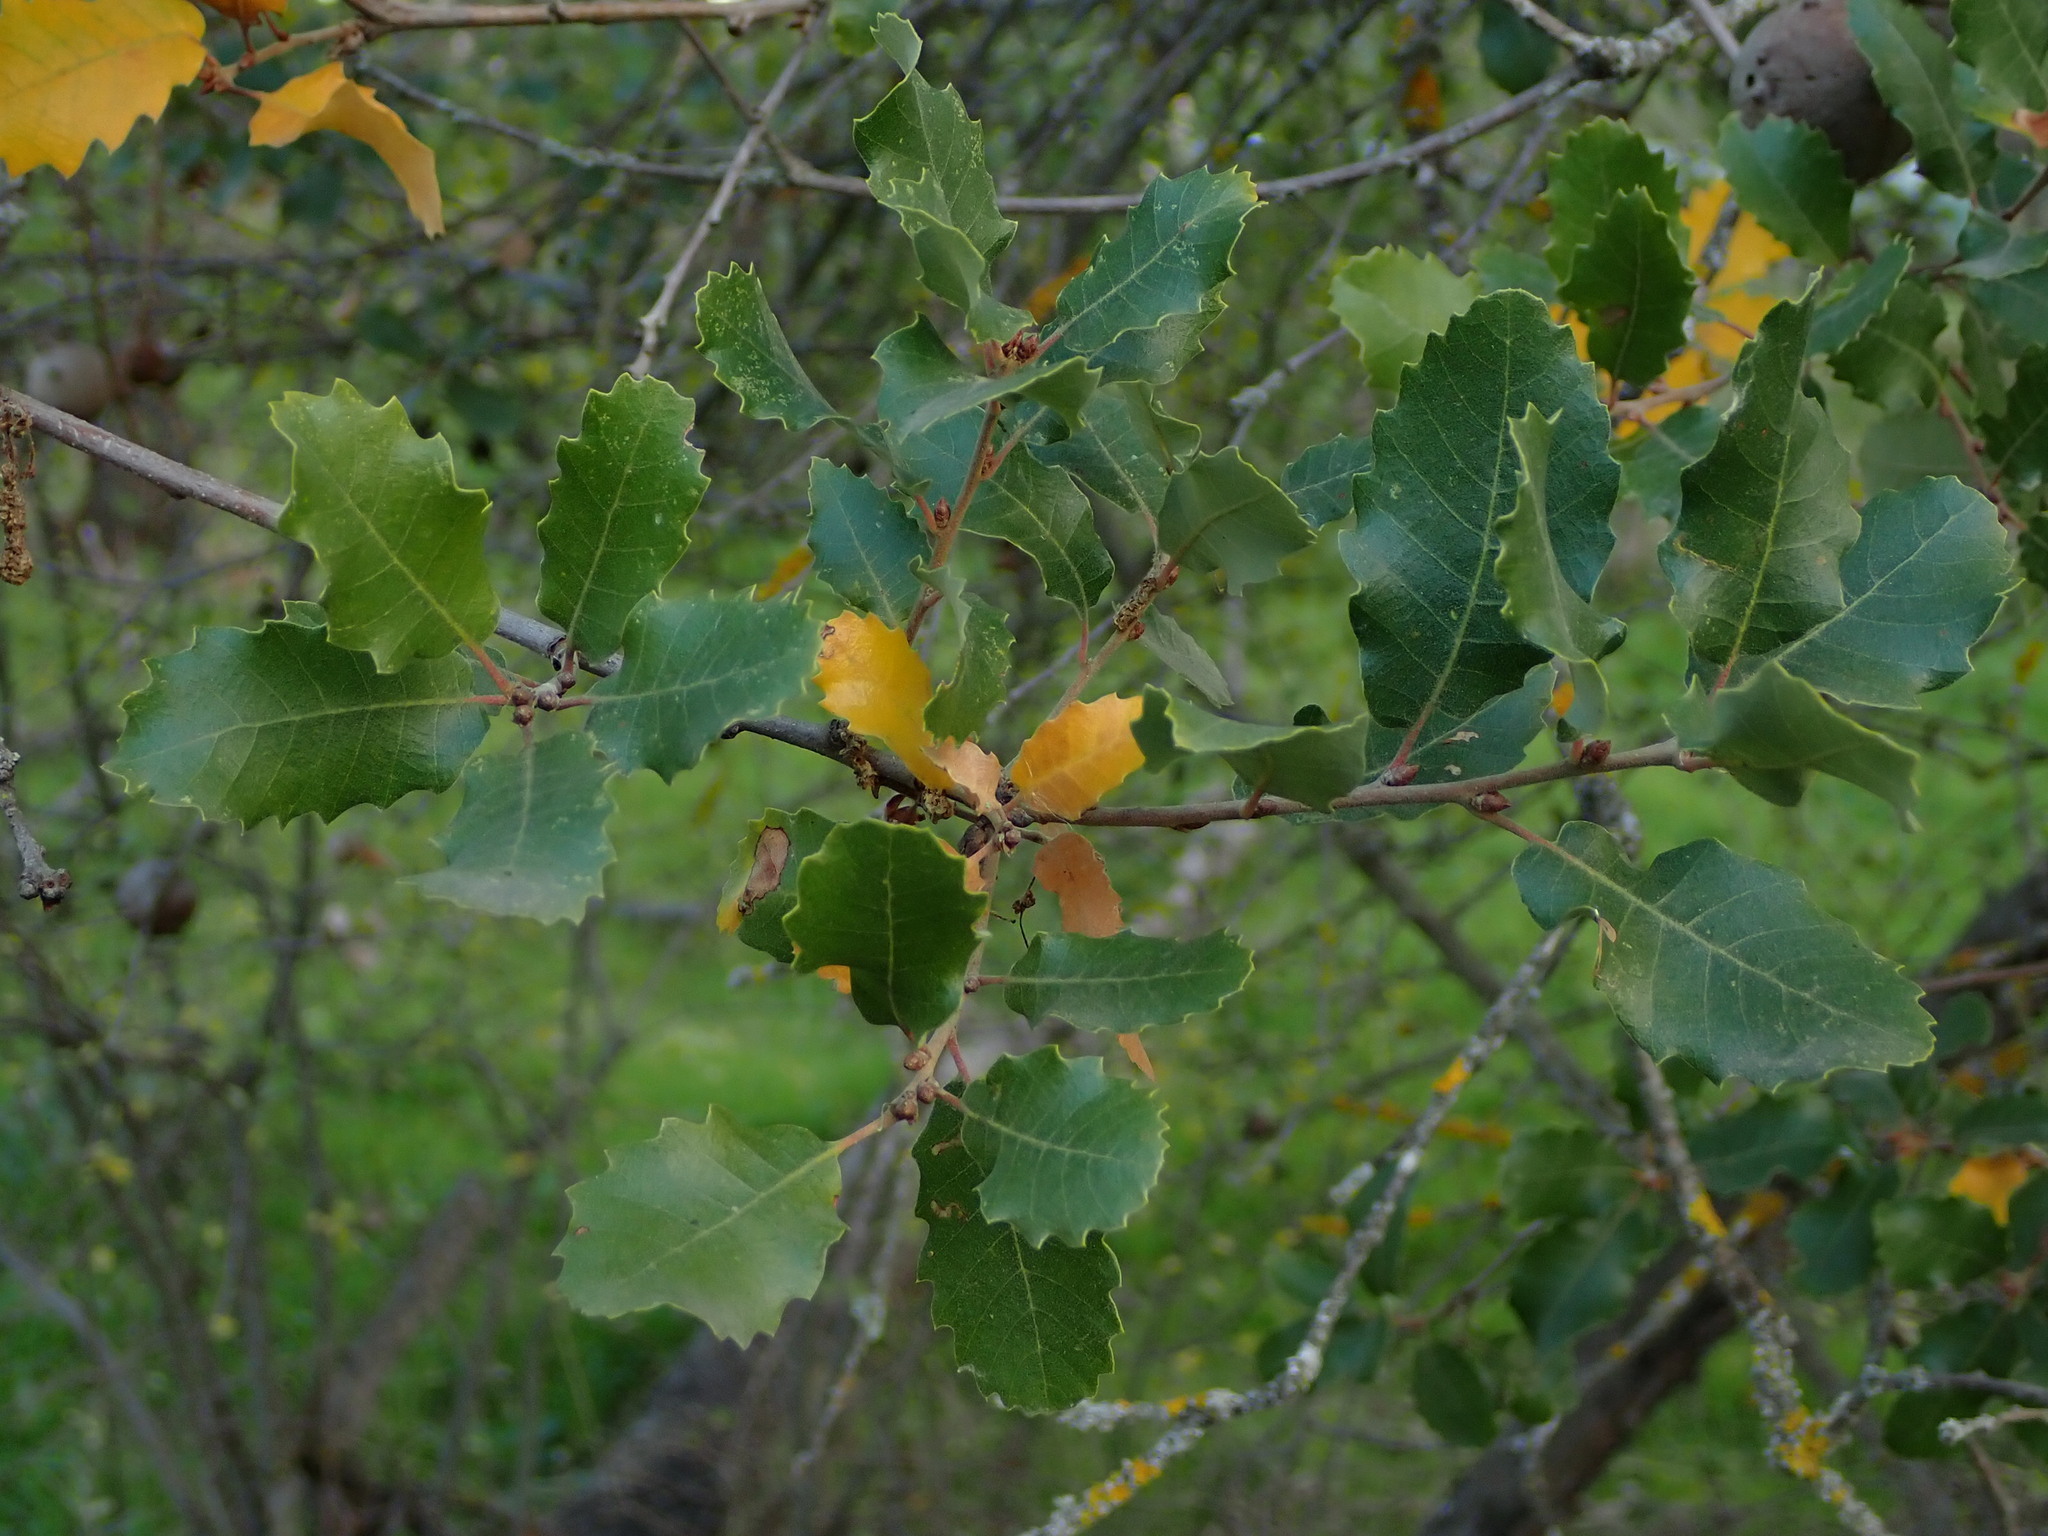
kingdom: Plantae
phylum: Tracheophyta
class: Magnoliopsida
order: Fagales
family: Fagaceae
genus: Quercus
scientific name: Quercus faginea
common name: Gall oak tree
